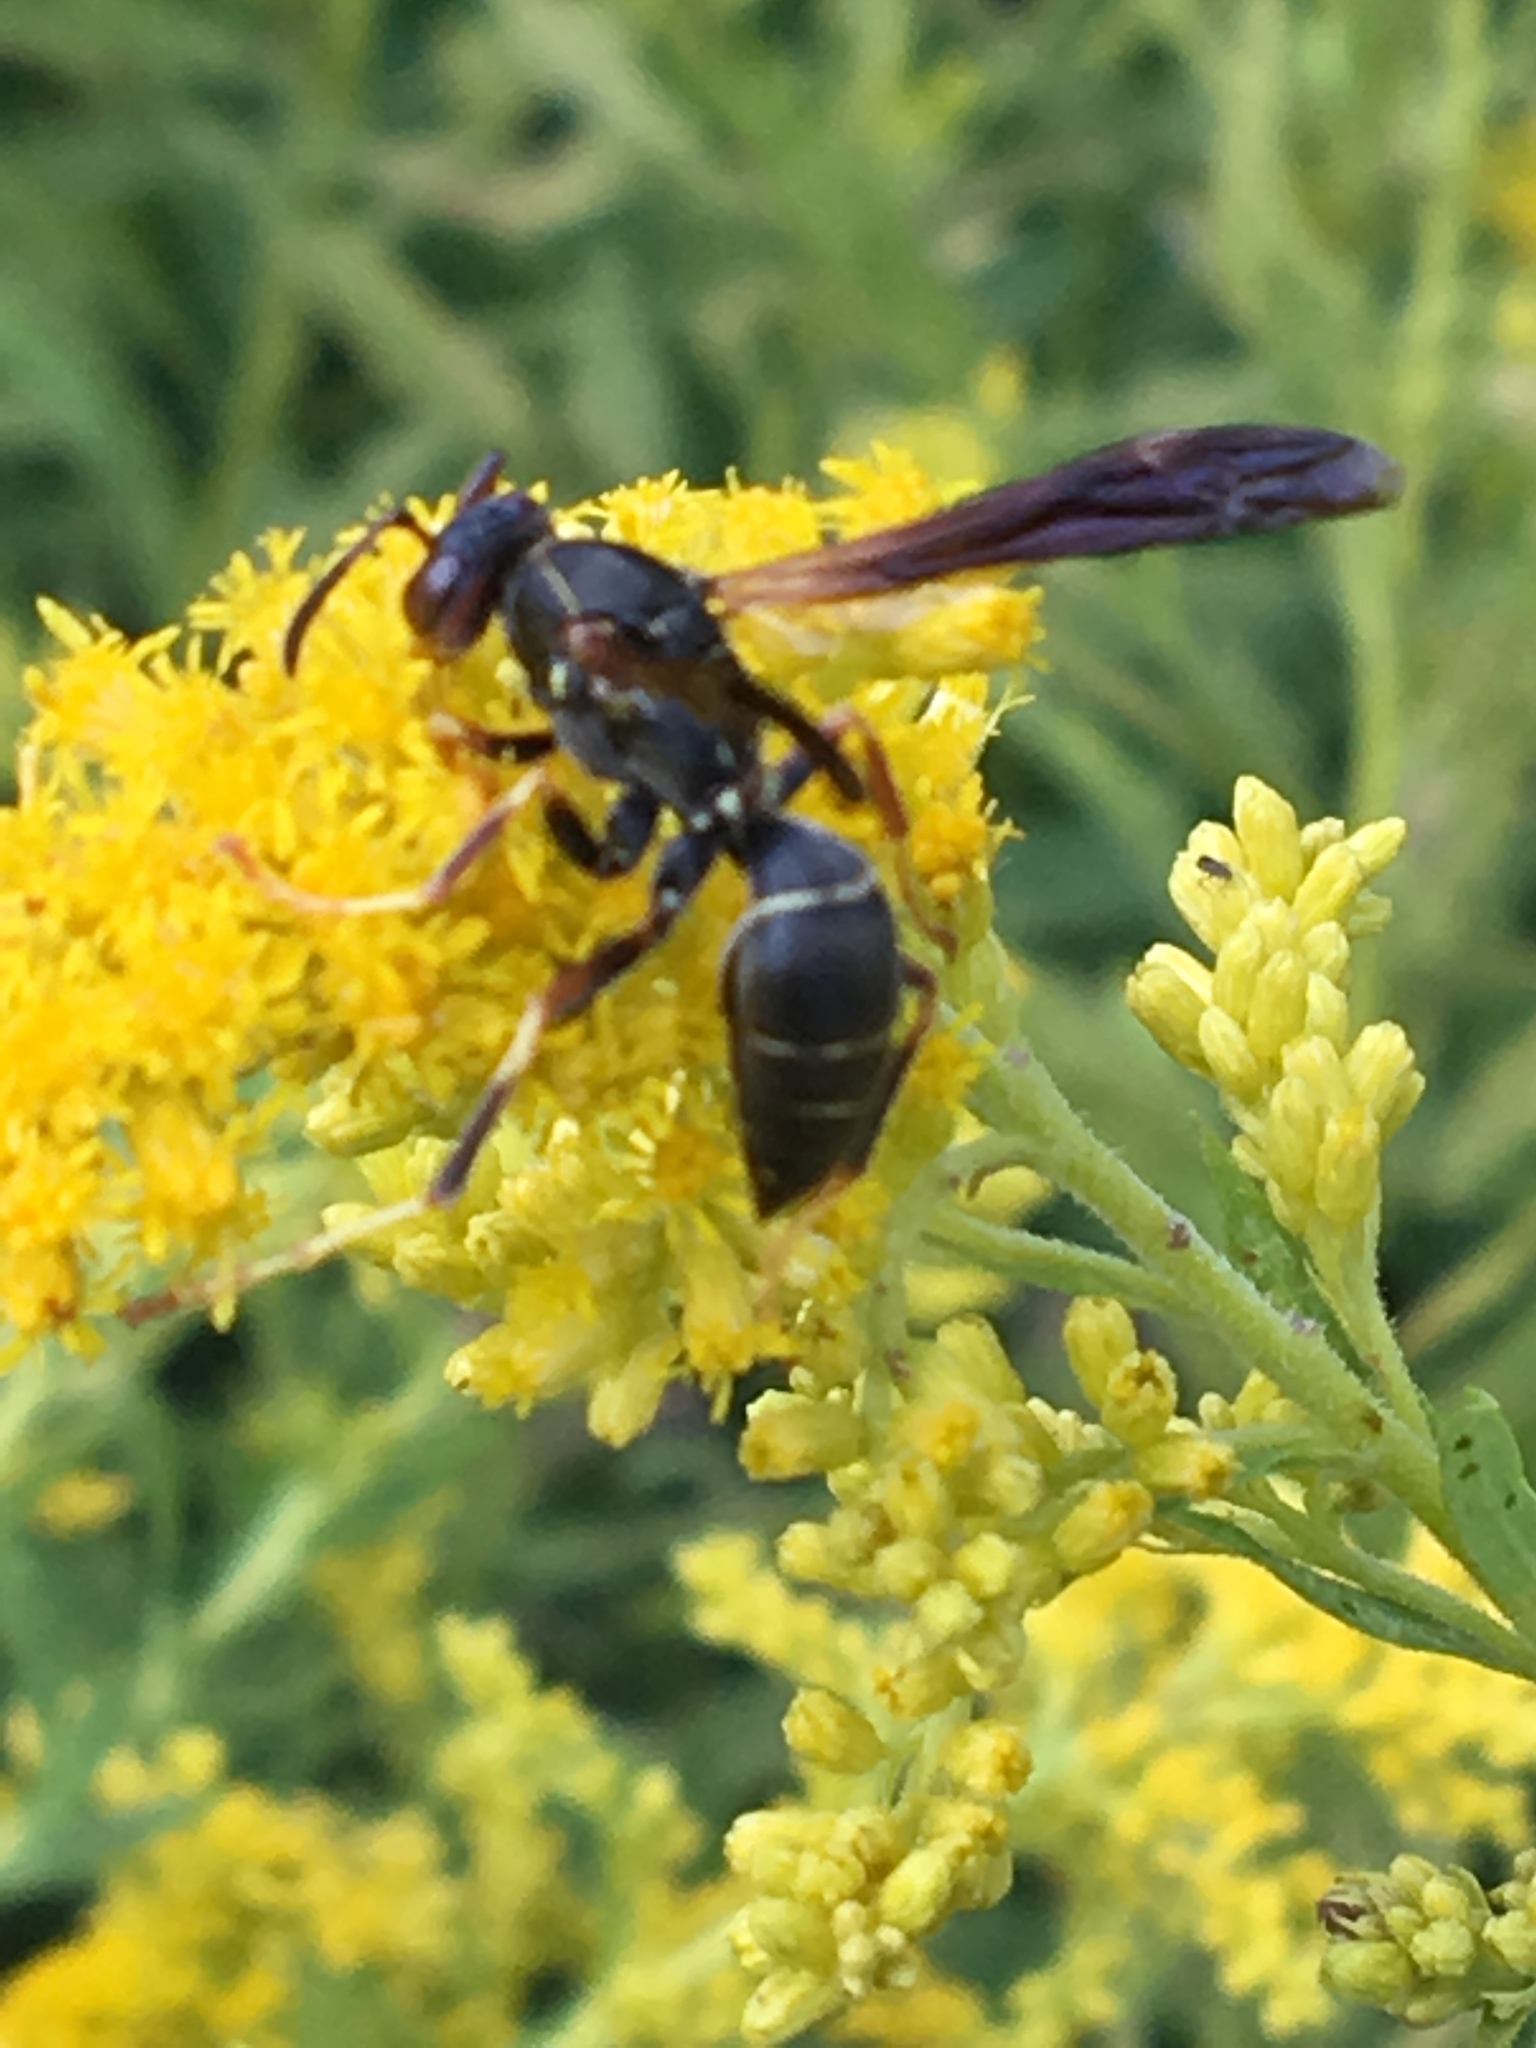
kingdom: Animalia
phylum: Arthropoda
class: Insecta
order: Hymenoptera
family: Eumenidae
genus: Polistes
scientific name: Polistes fuscatus
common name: Dark paper wasp
